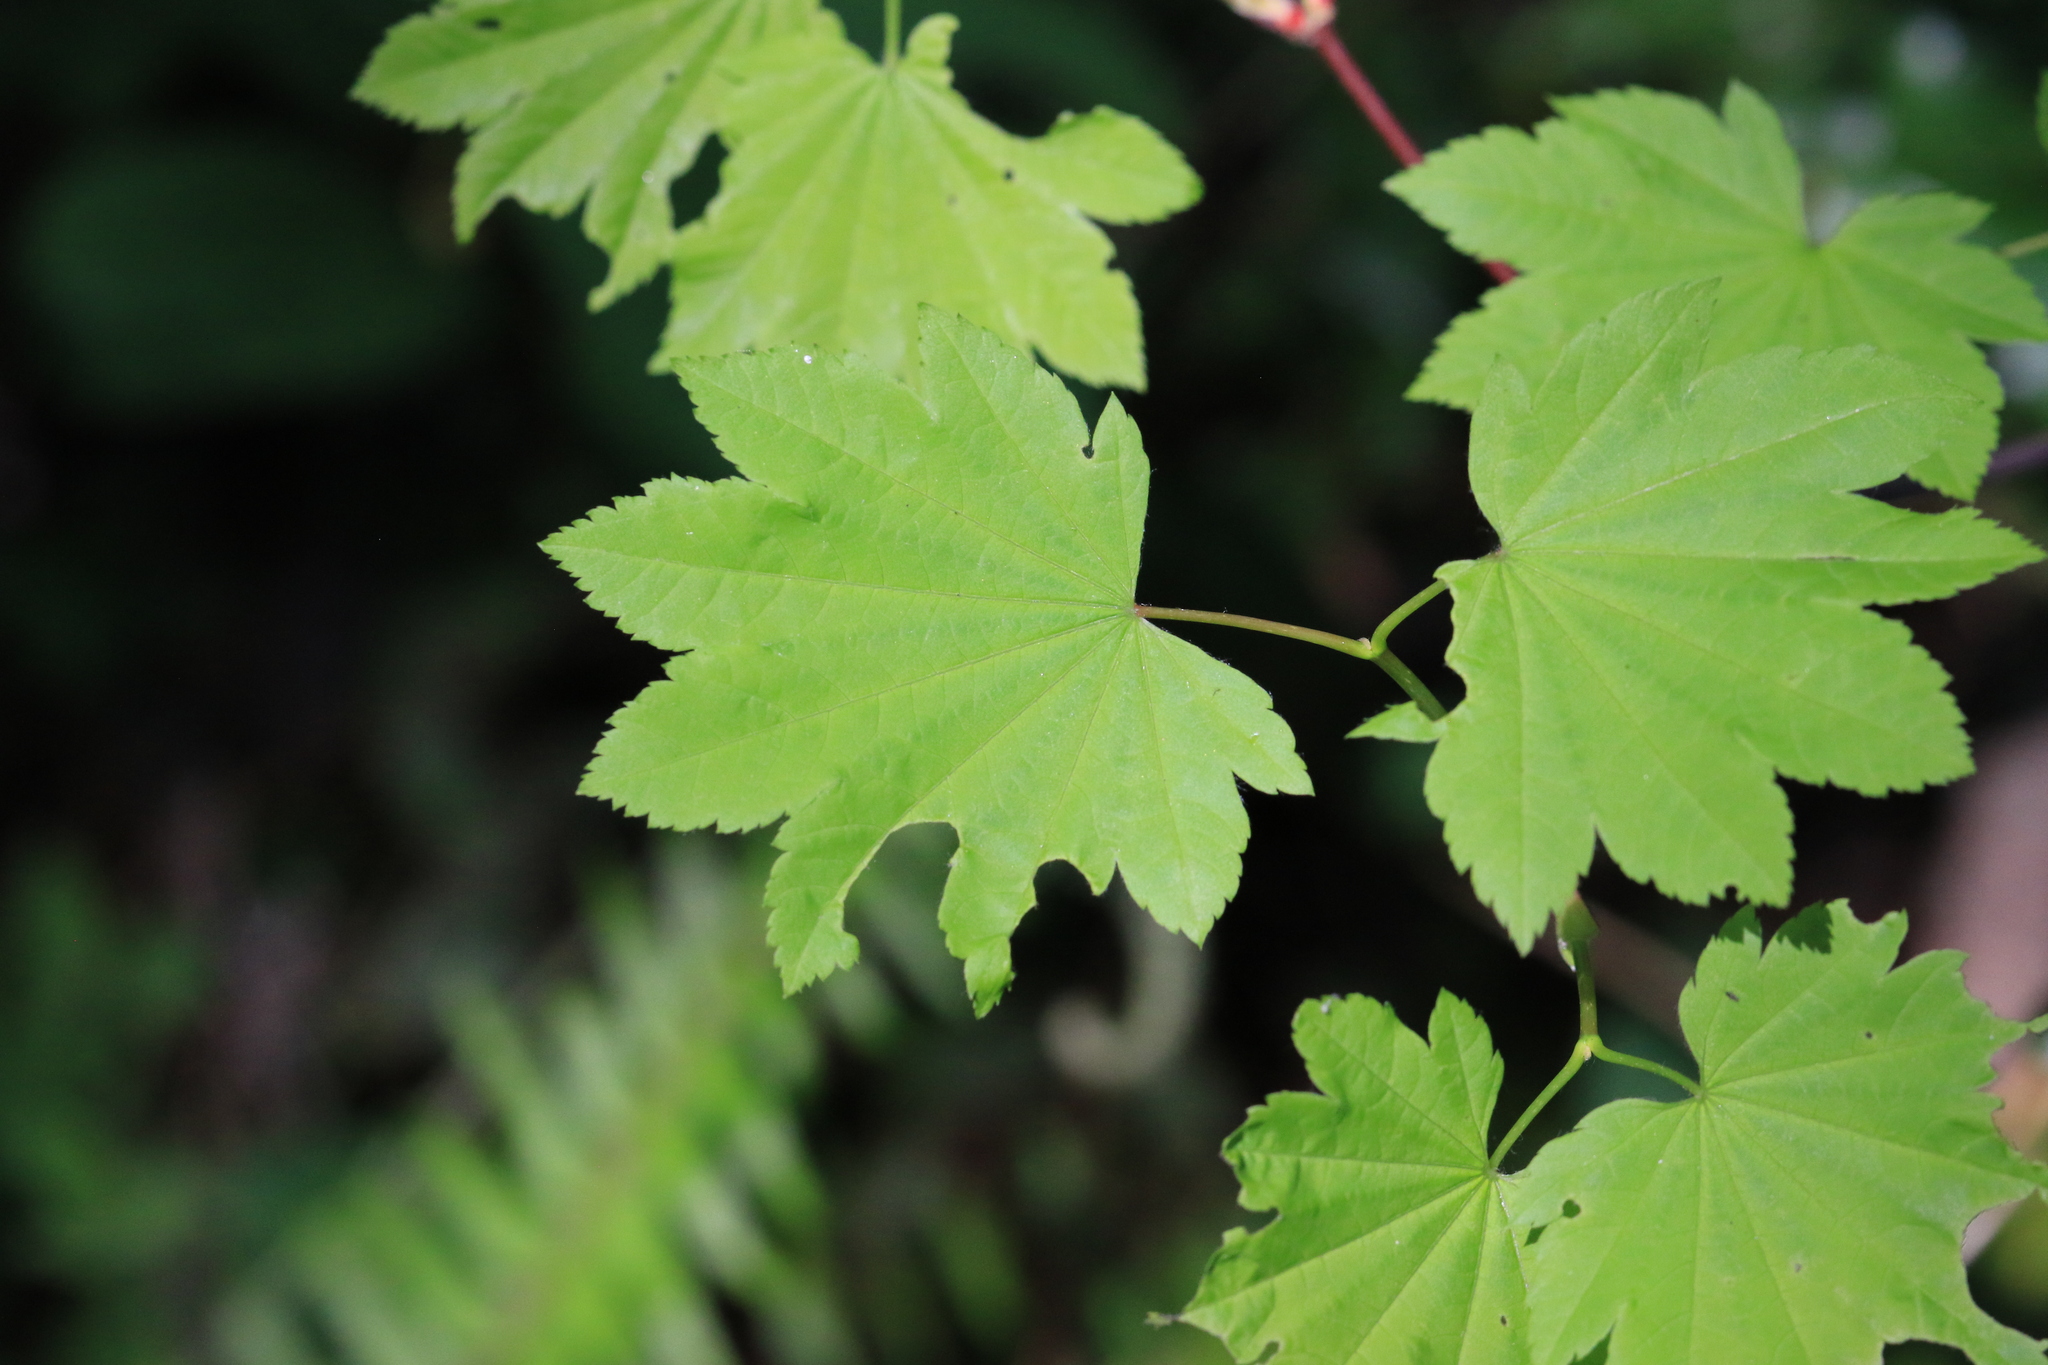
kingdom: Plantae
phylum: Tracheophyta
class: Magnoliopsida
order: Sapindales
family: Sapindaceae
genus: Acer
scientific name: Acer circinatum
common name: Vine maple
